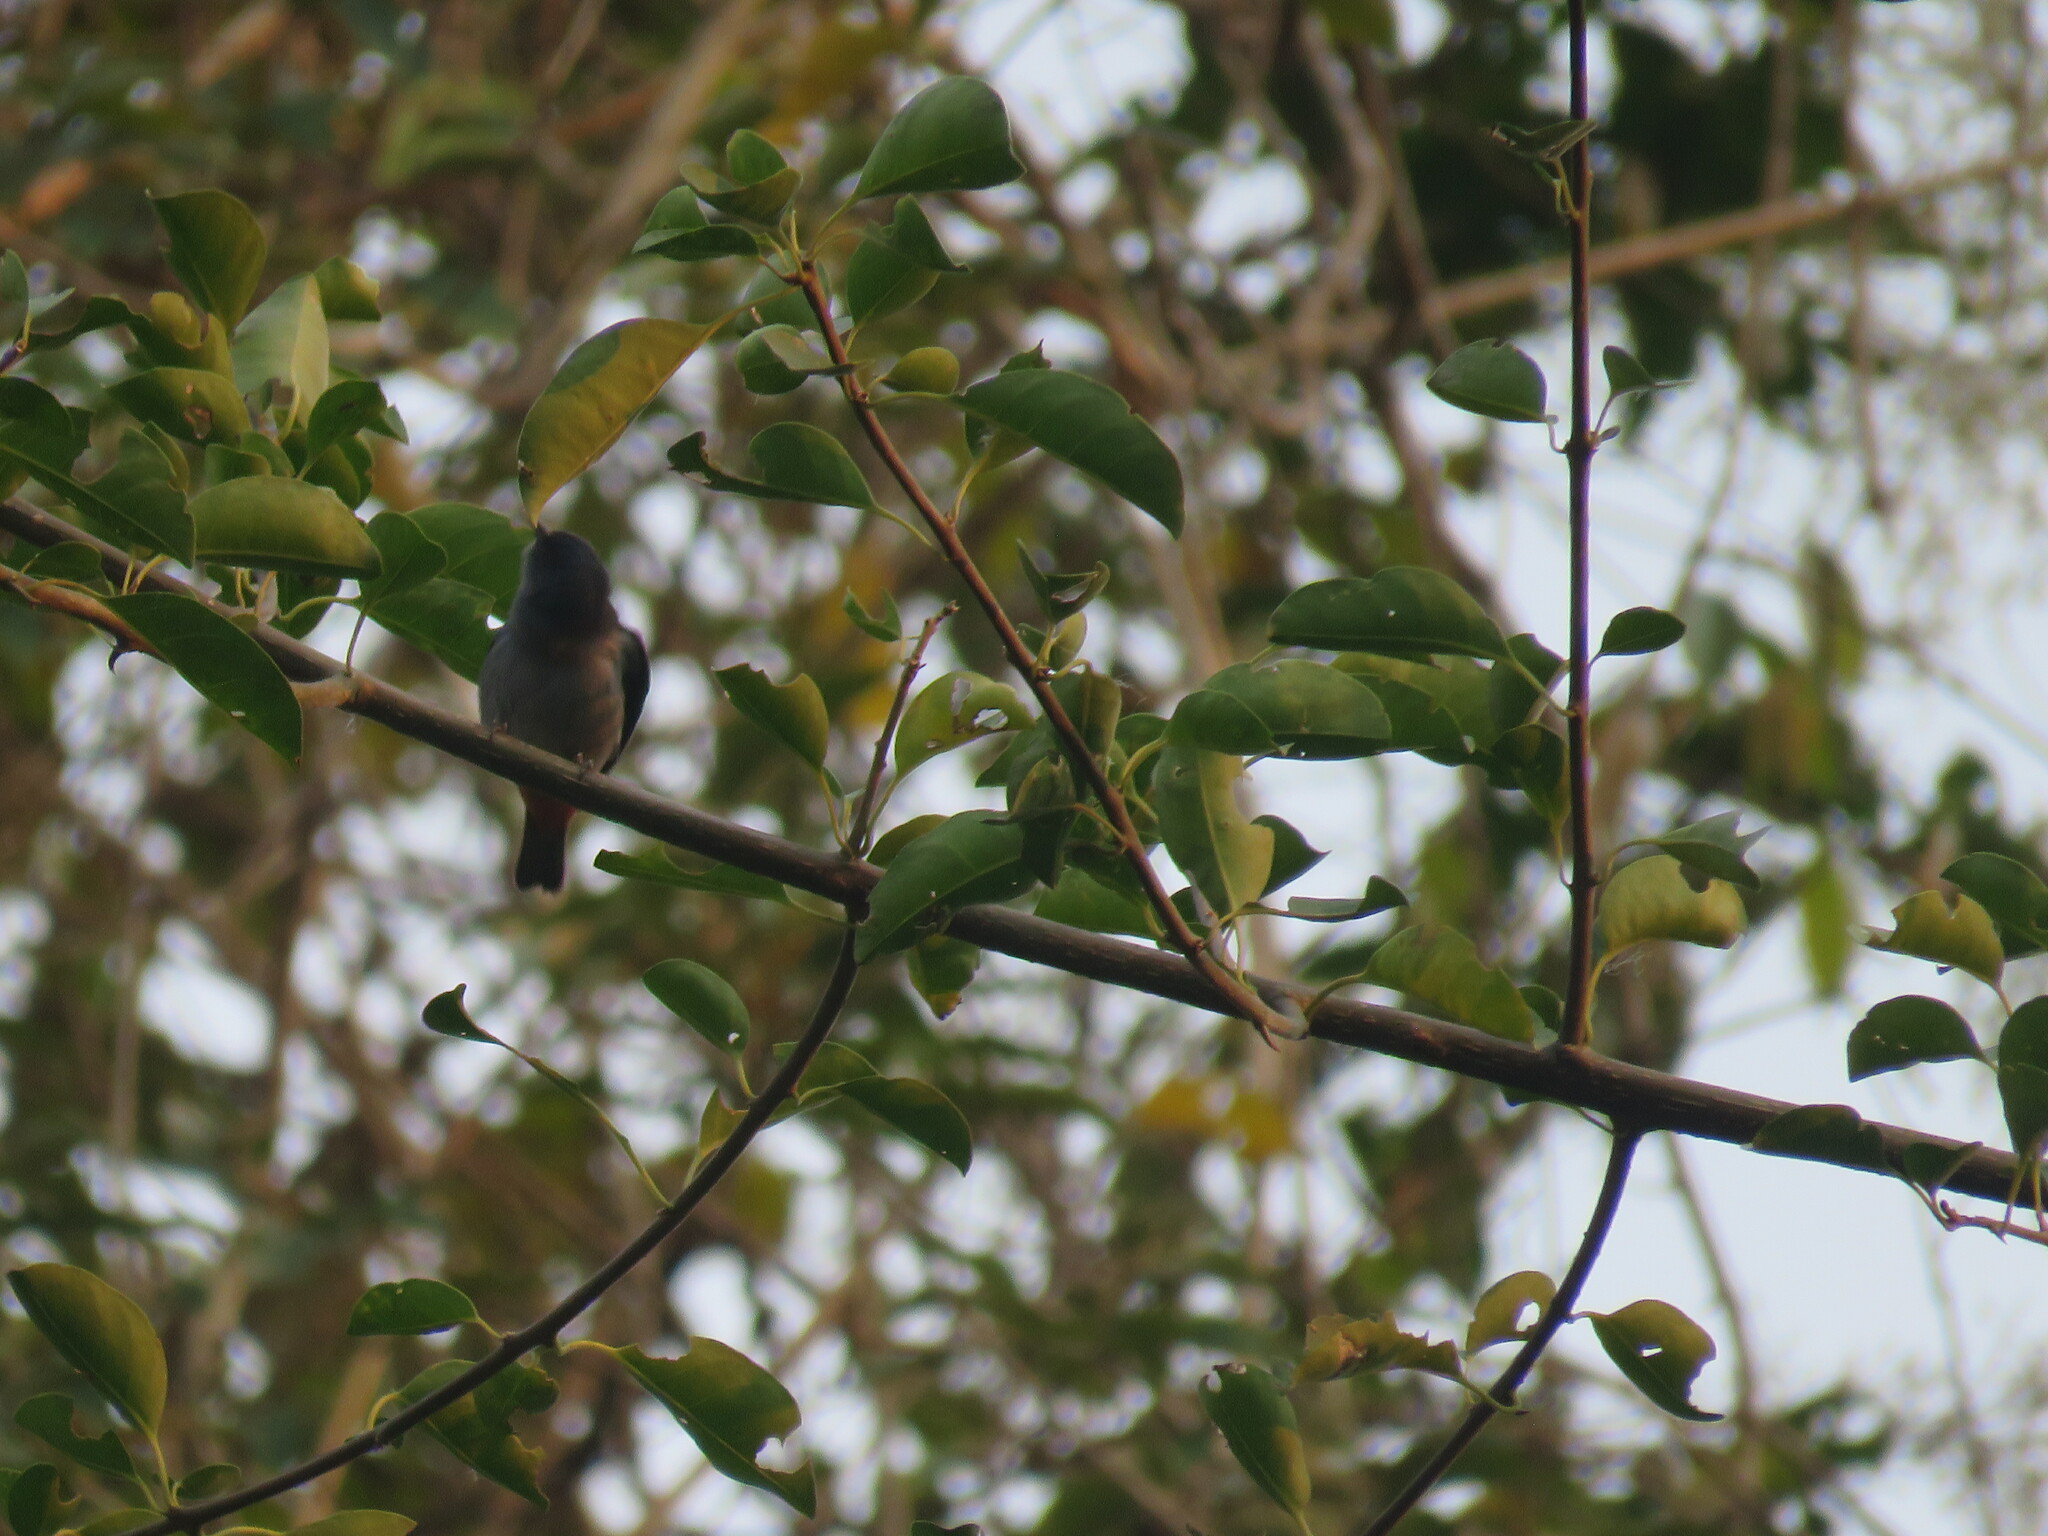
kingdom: Animalia
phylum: Chordata
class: Aves
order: Passeriformes
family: Thraupidae
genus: Conirostrum
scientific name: Conirostrum speciosum
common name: Chestnut-vented conebill
